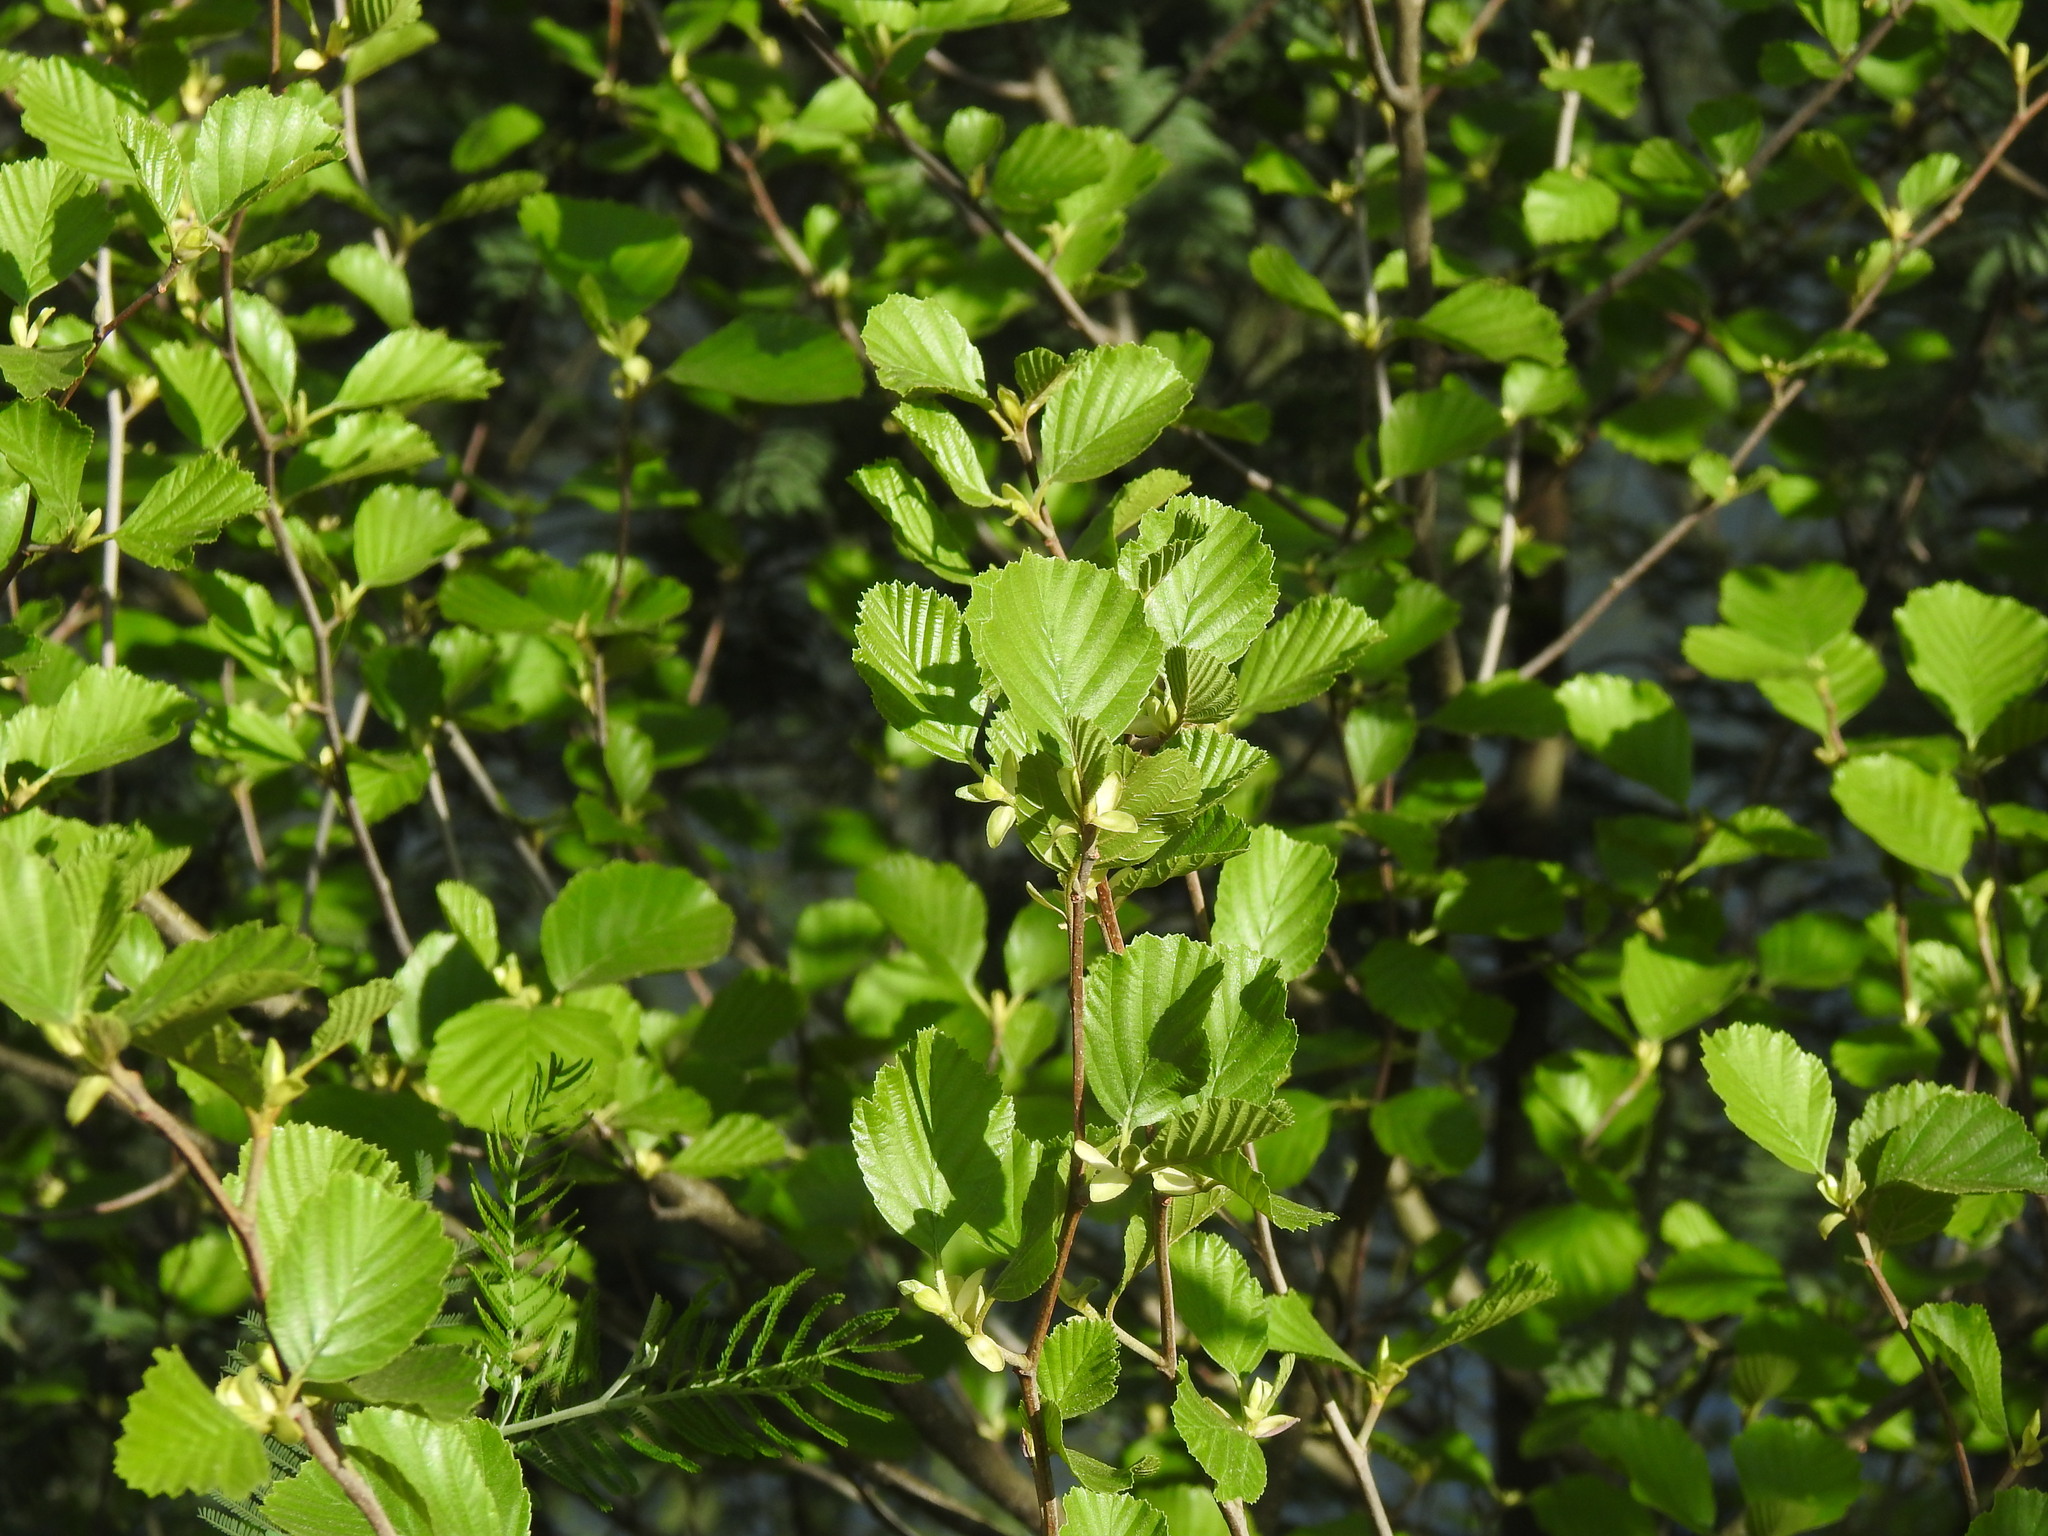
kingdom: Plantae
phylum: Tracheophyta
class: Magnoliopsida
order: Fagales
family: Betulaceae
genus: Alnus
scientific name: Alnus lusitanica
